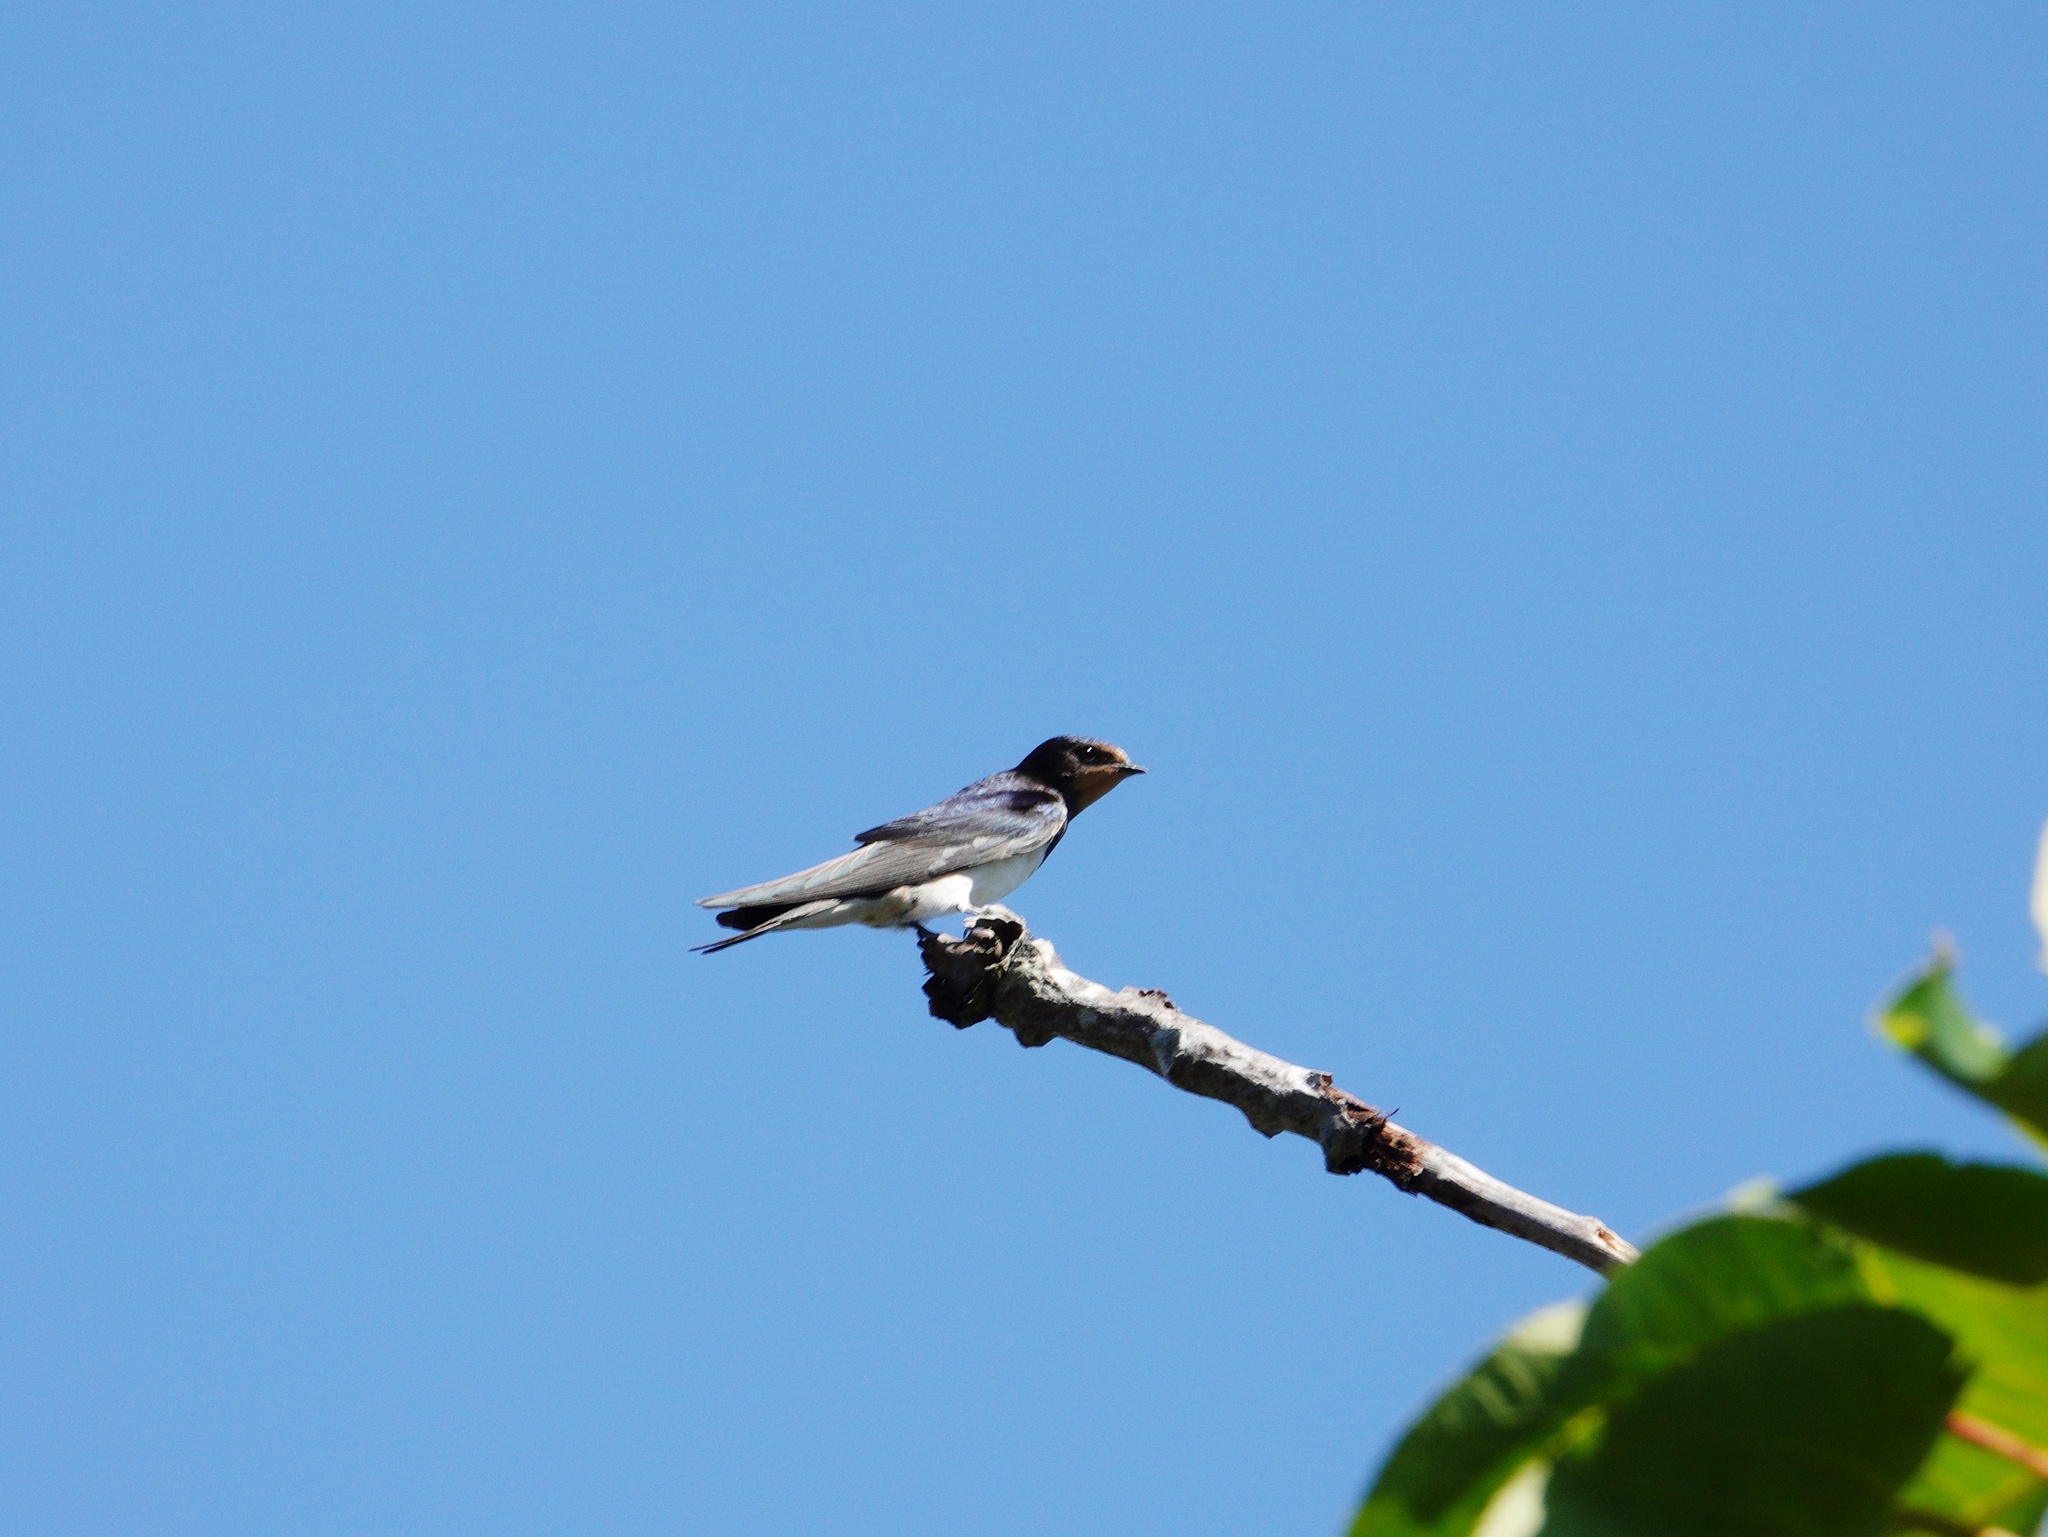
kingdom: Animalia
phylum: Chordata
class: Aves
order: Passeriformes
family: Hirundinidae
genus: Hirundo
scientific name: Hirundo rustica
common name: Barn swallow
